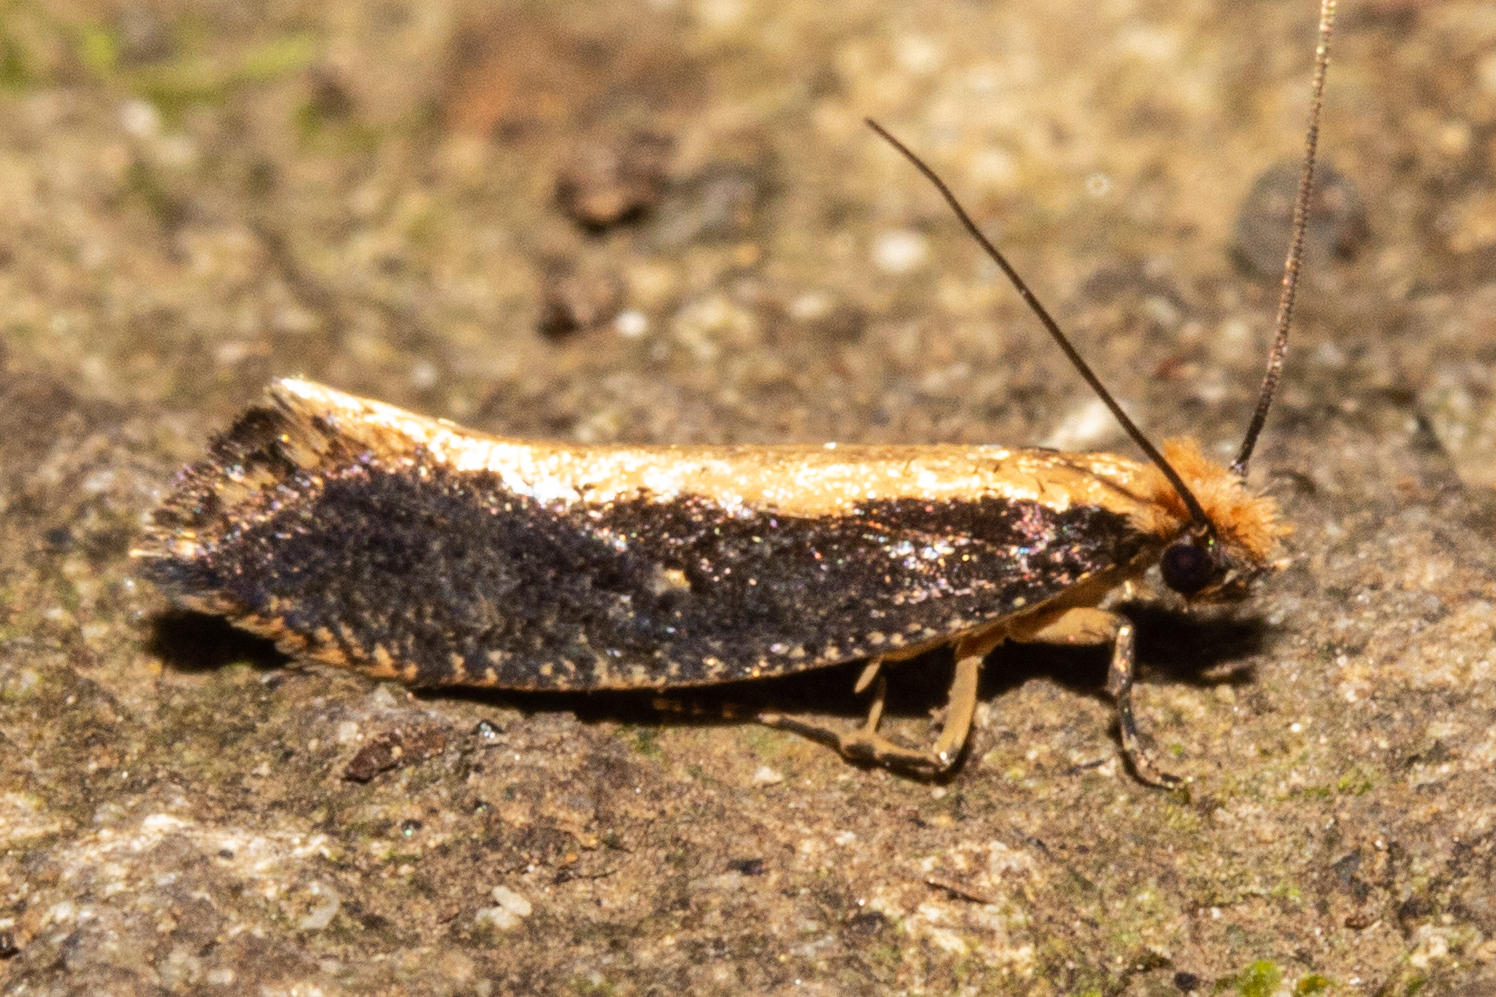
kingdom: Animalia
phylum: Arthropoda
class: Insecta
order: Lepidoptera
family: Tineidae
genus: Monopis
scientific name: Monopis dimorphella
